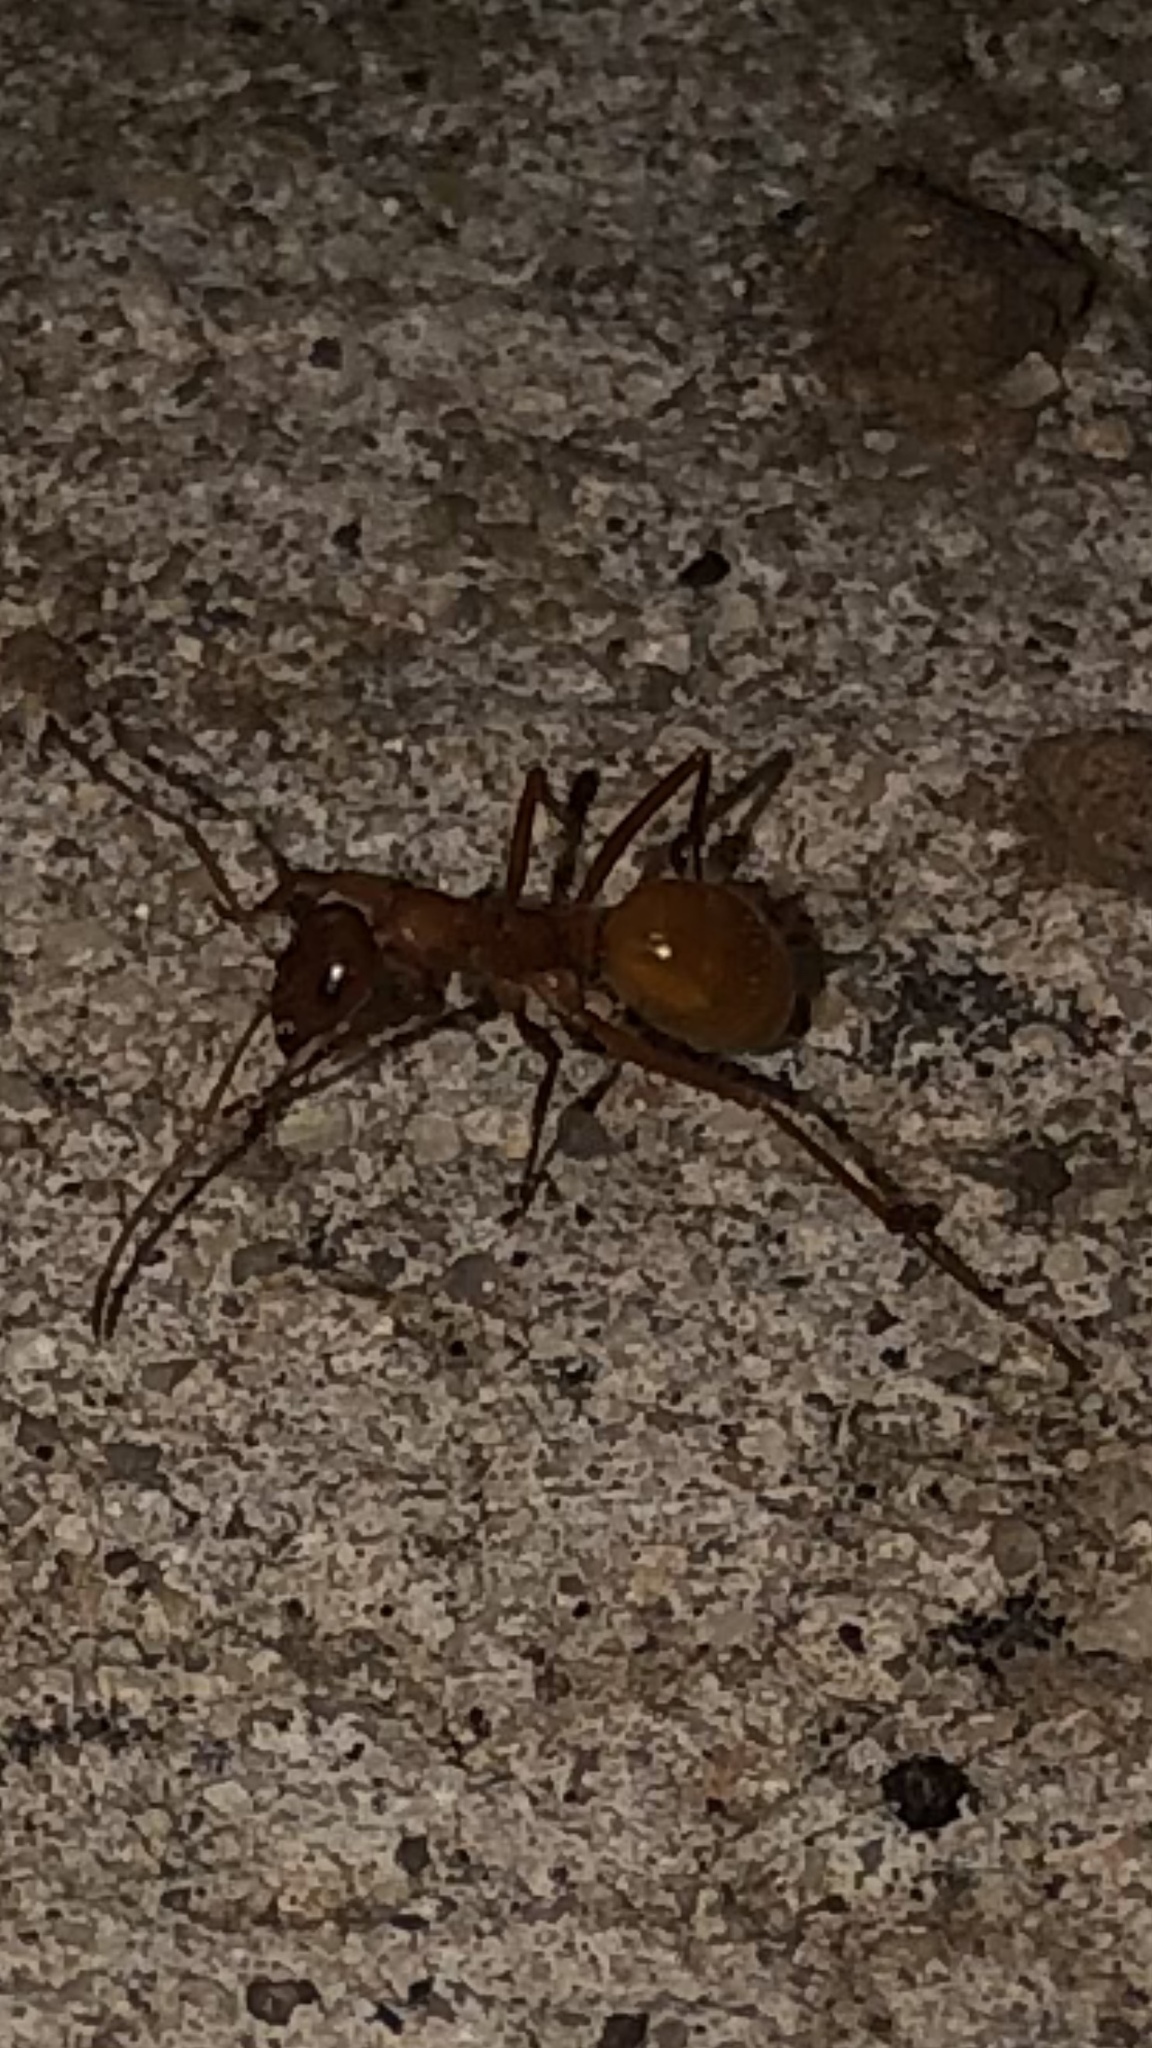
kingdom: Animalia
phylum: Arthropoda
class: Insecta
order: Hymenoptera
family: Formicidae
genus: Formica
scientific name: Formica pallidefulva
